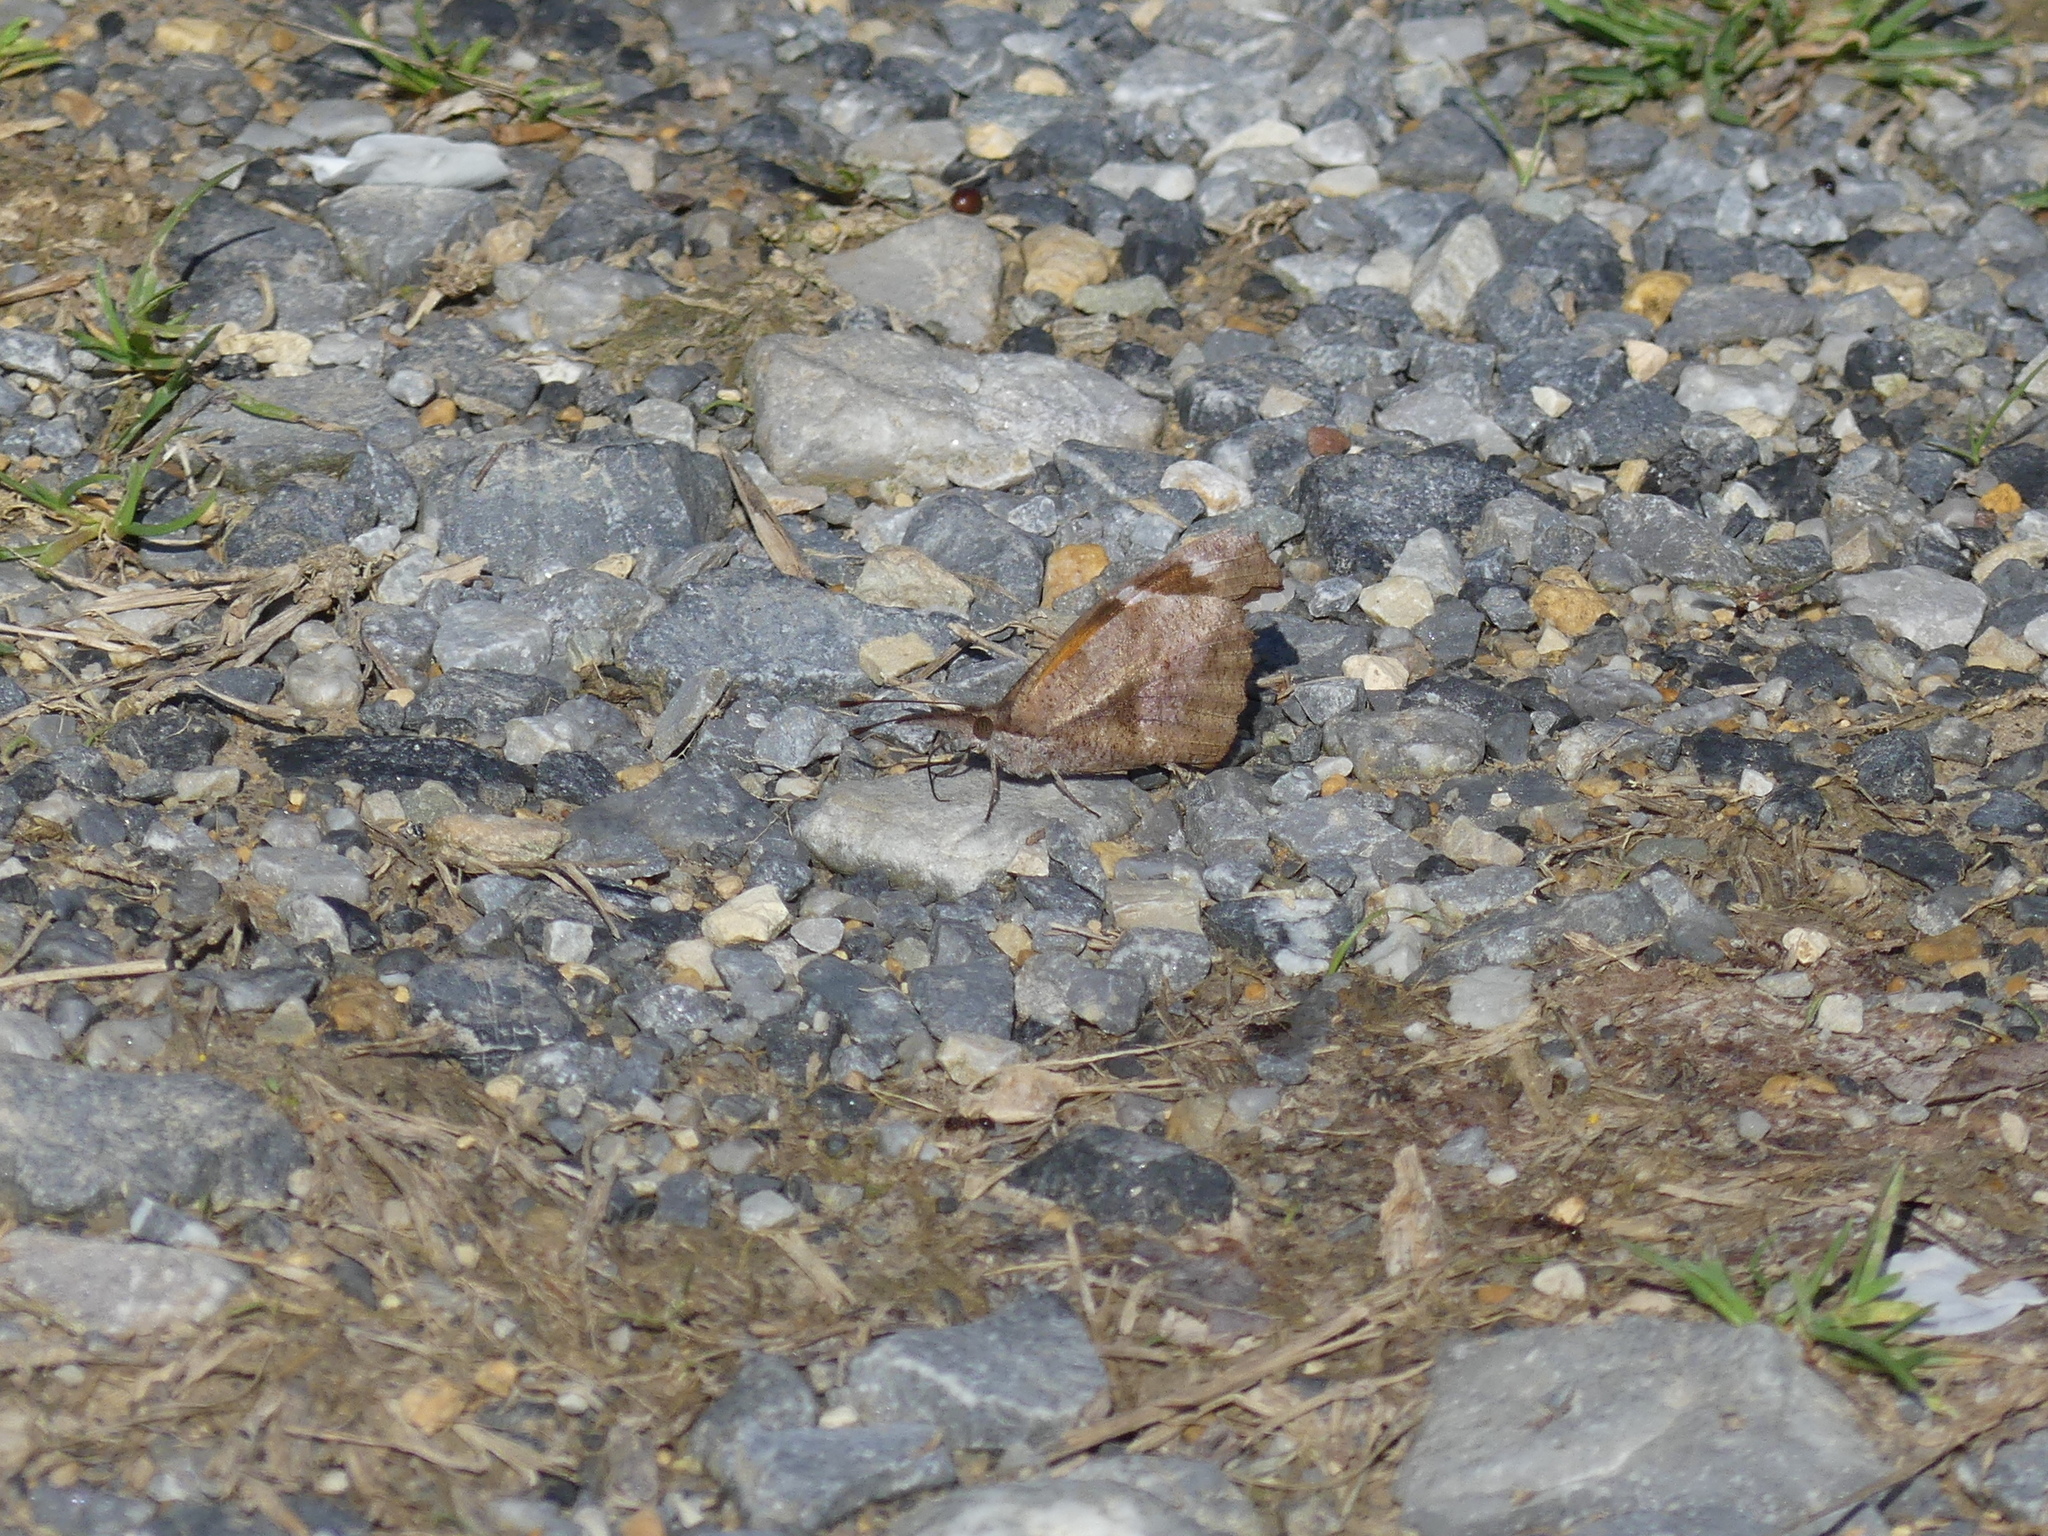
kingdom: Animalia
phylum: Arthropoda
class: Insecta
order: Lepidoptera
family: Nymphalidae
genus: Libytheana
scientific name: Libytheana carinenta
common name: American snout
